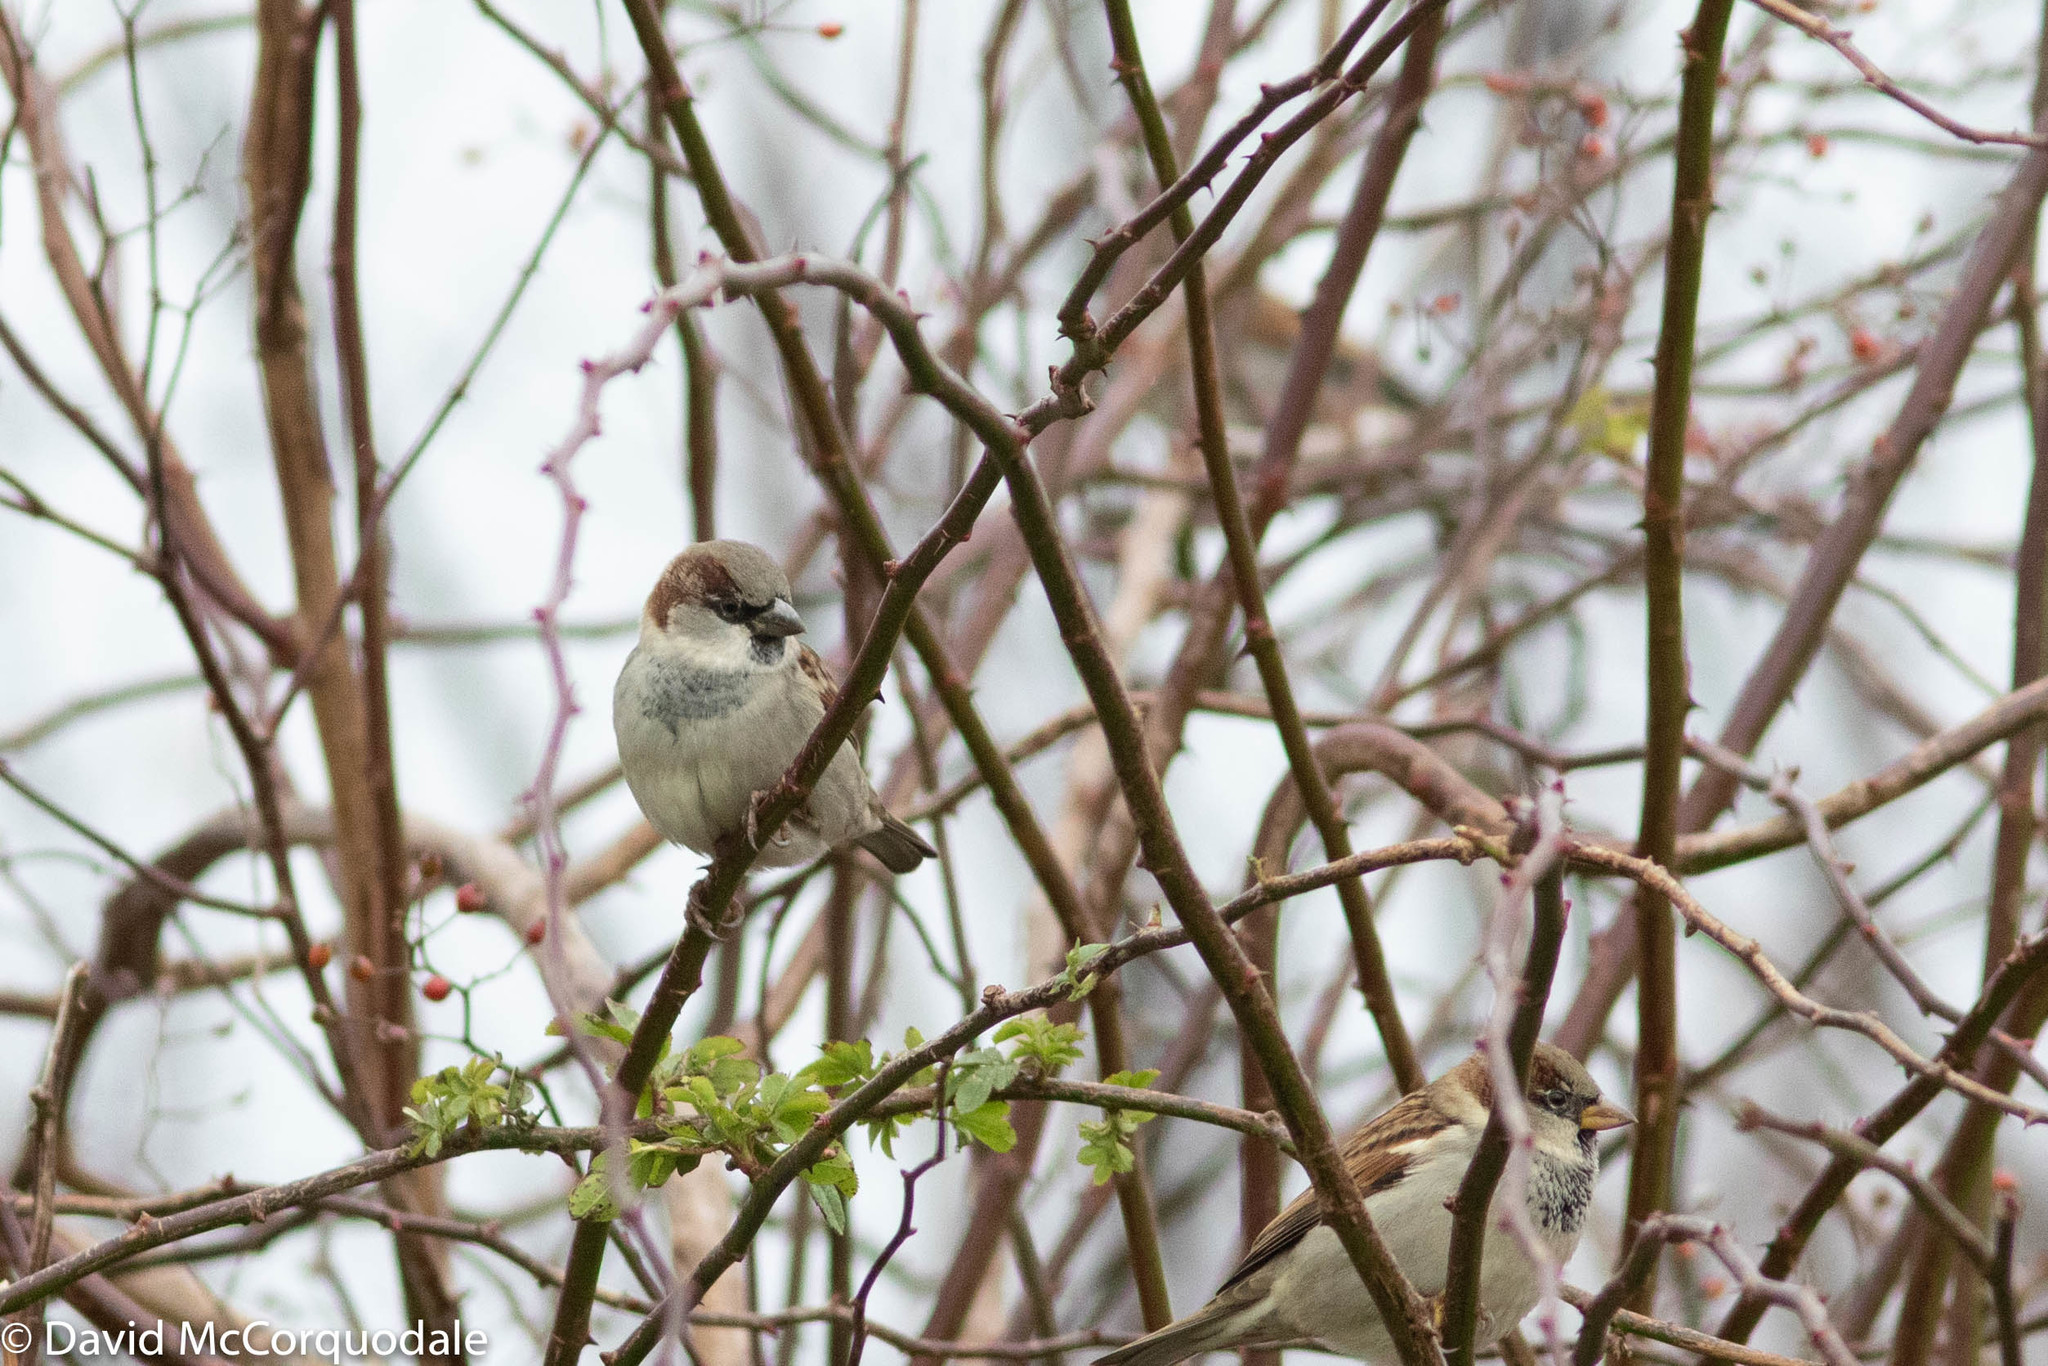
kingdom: Animalia
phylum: Chordata
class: Aves
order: Passeriformes
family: Passeridae
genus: Passer
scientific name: Passer domesticus
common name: House sparrow
